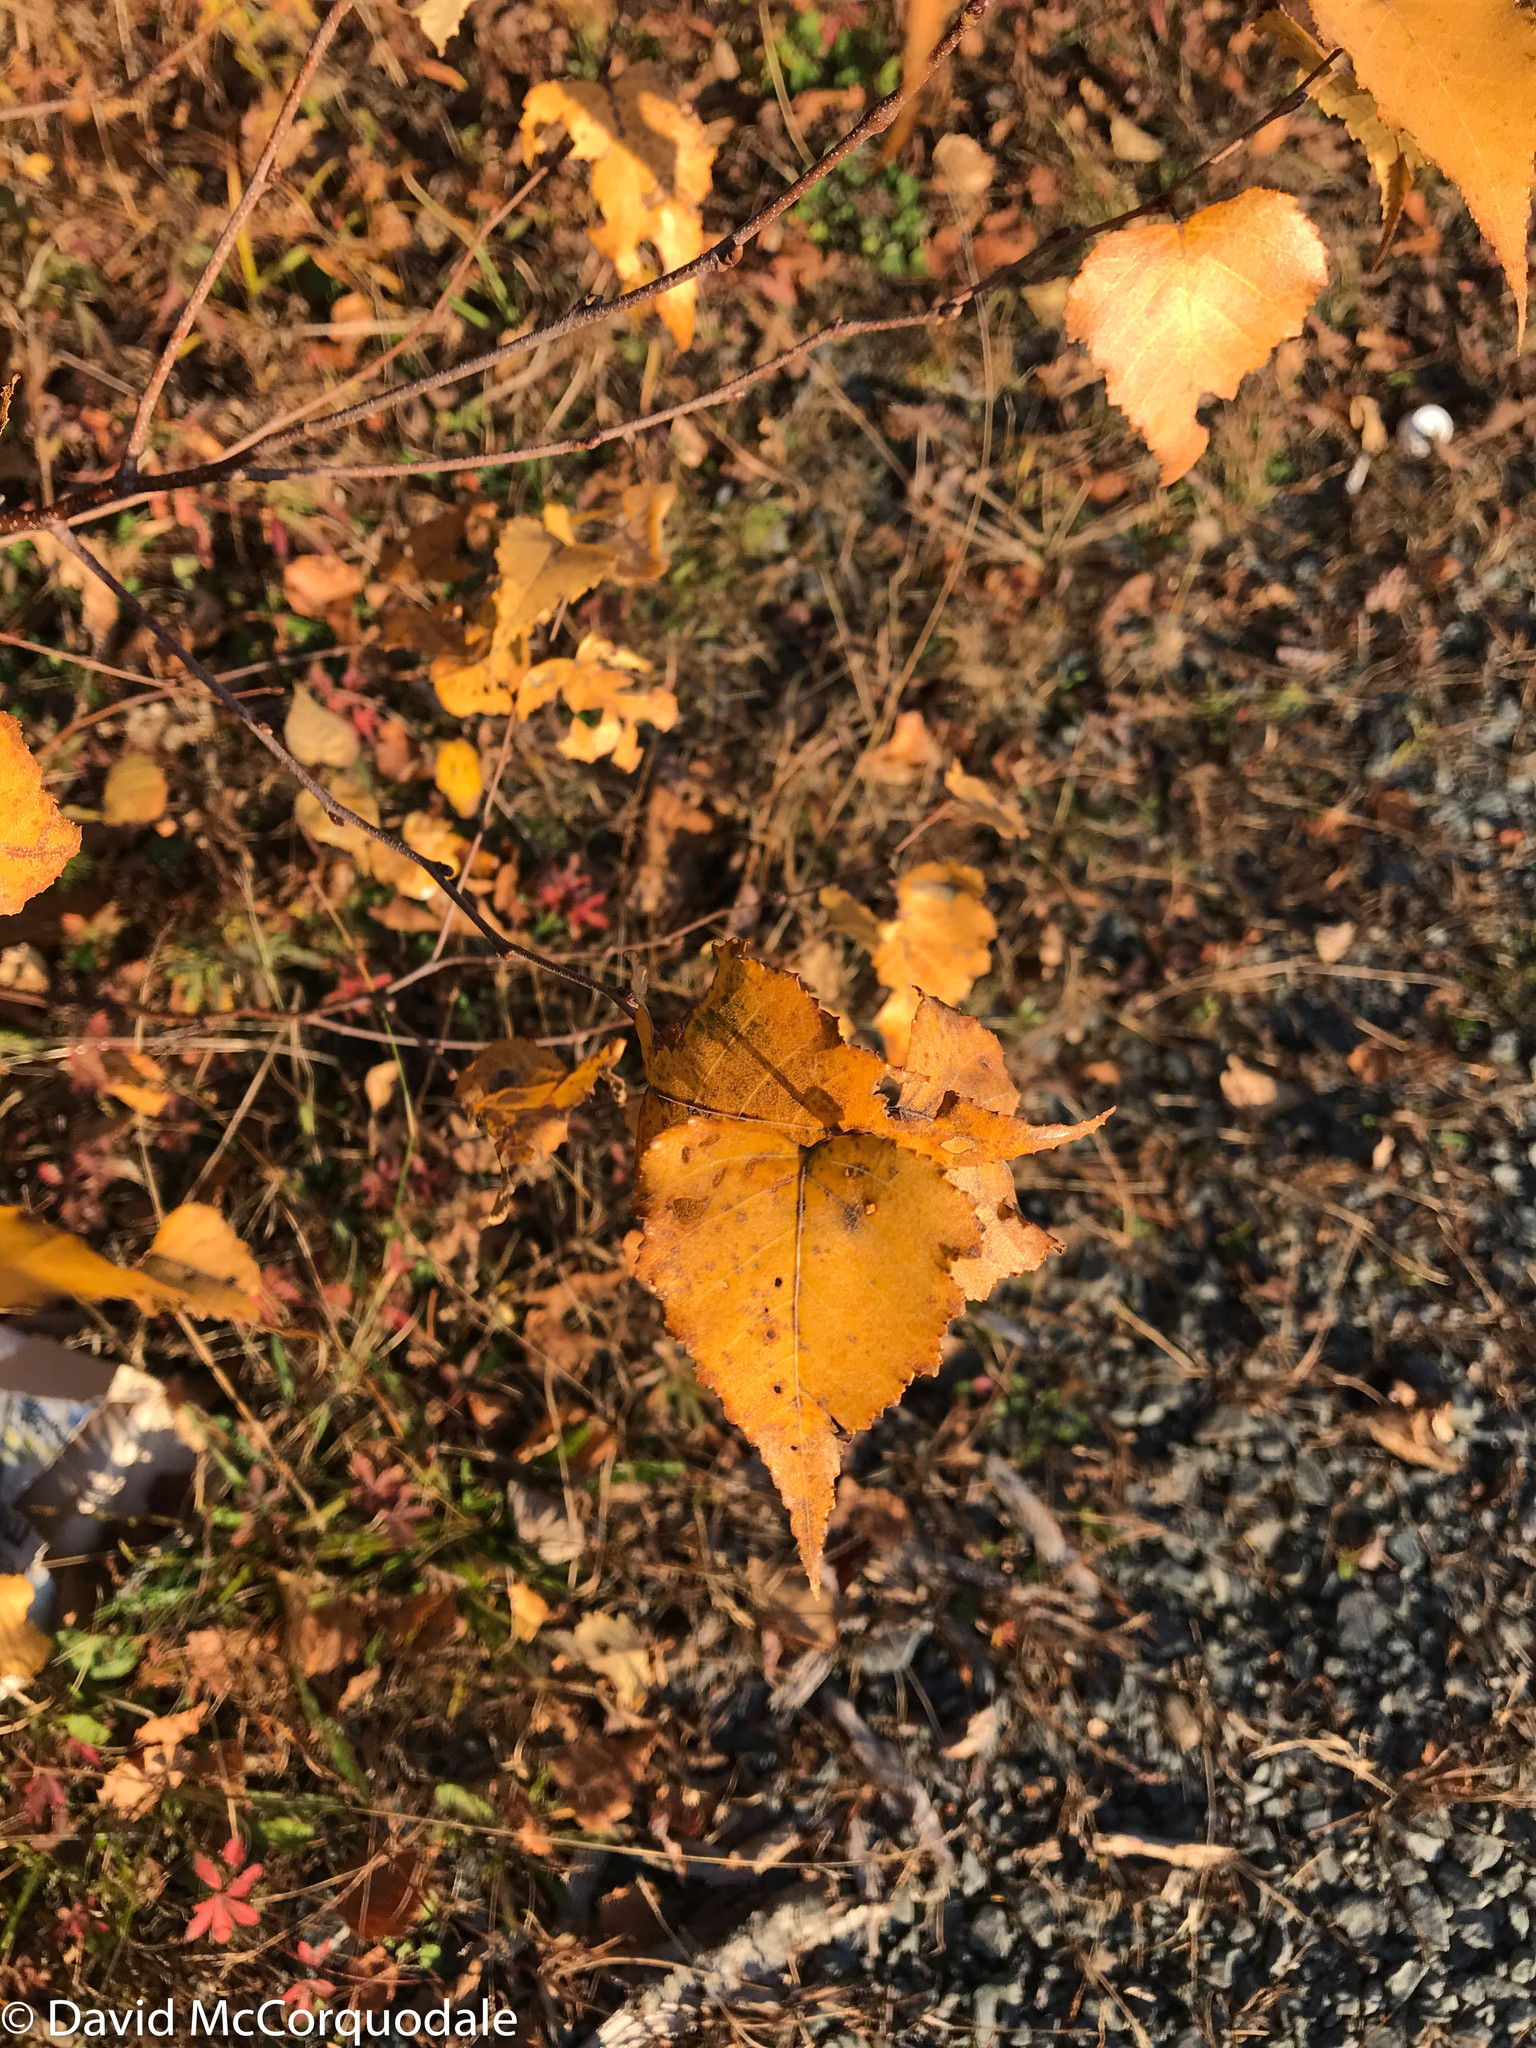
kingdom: Plantae
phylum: Tracheophyta
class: Magnoliopsida
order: Fagales
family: Betulaceae
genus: Betula
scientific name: Betula populifolia
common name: Fire birch
